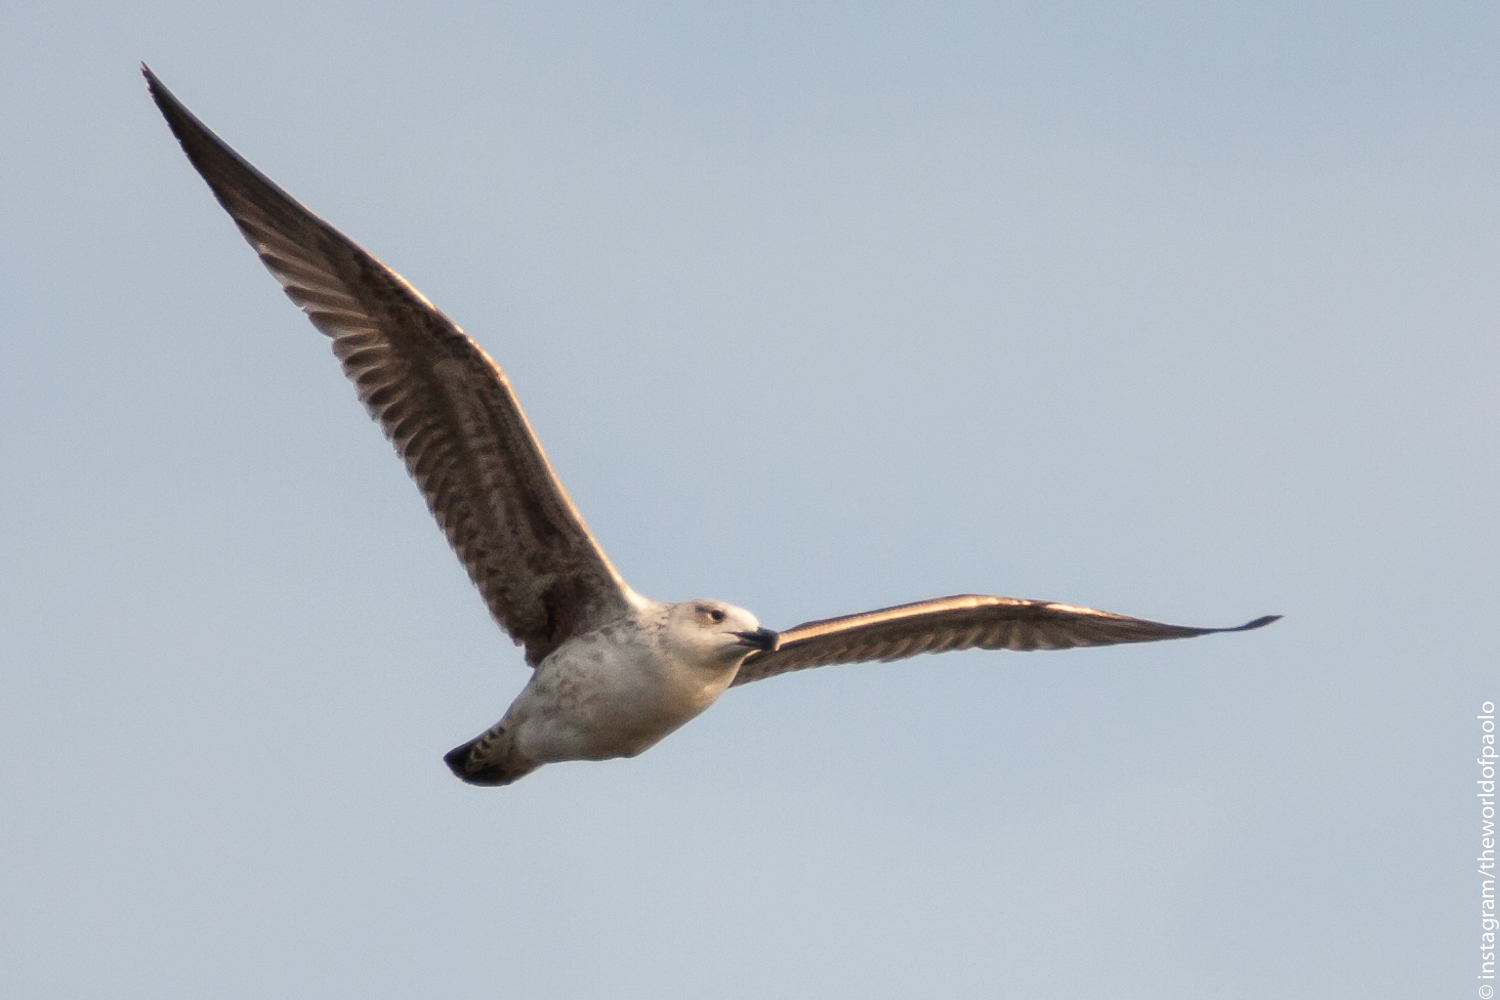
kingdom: Animalia
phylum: Chordata
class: Aves
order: Charadriiformes
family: Laridae
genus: Larus
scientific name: Larus michahellis
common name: Yellow-legged gull
